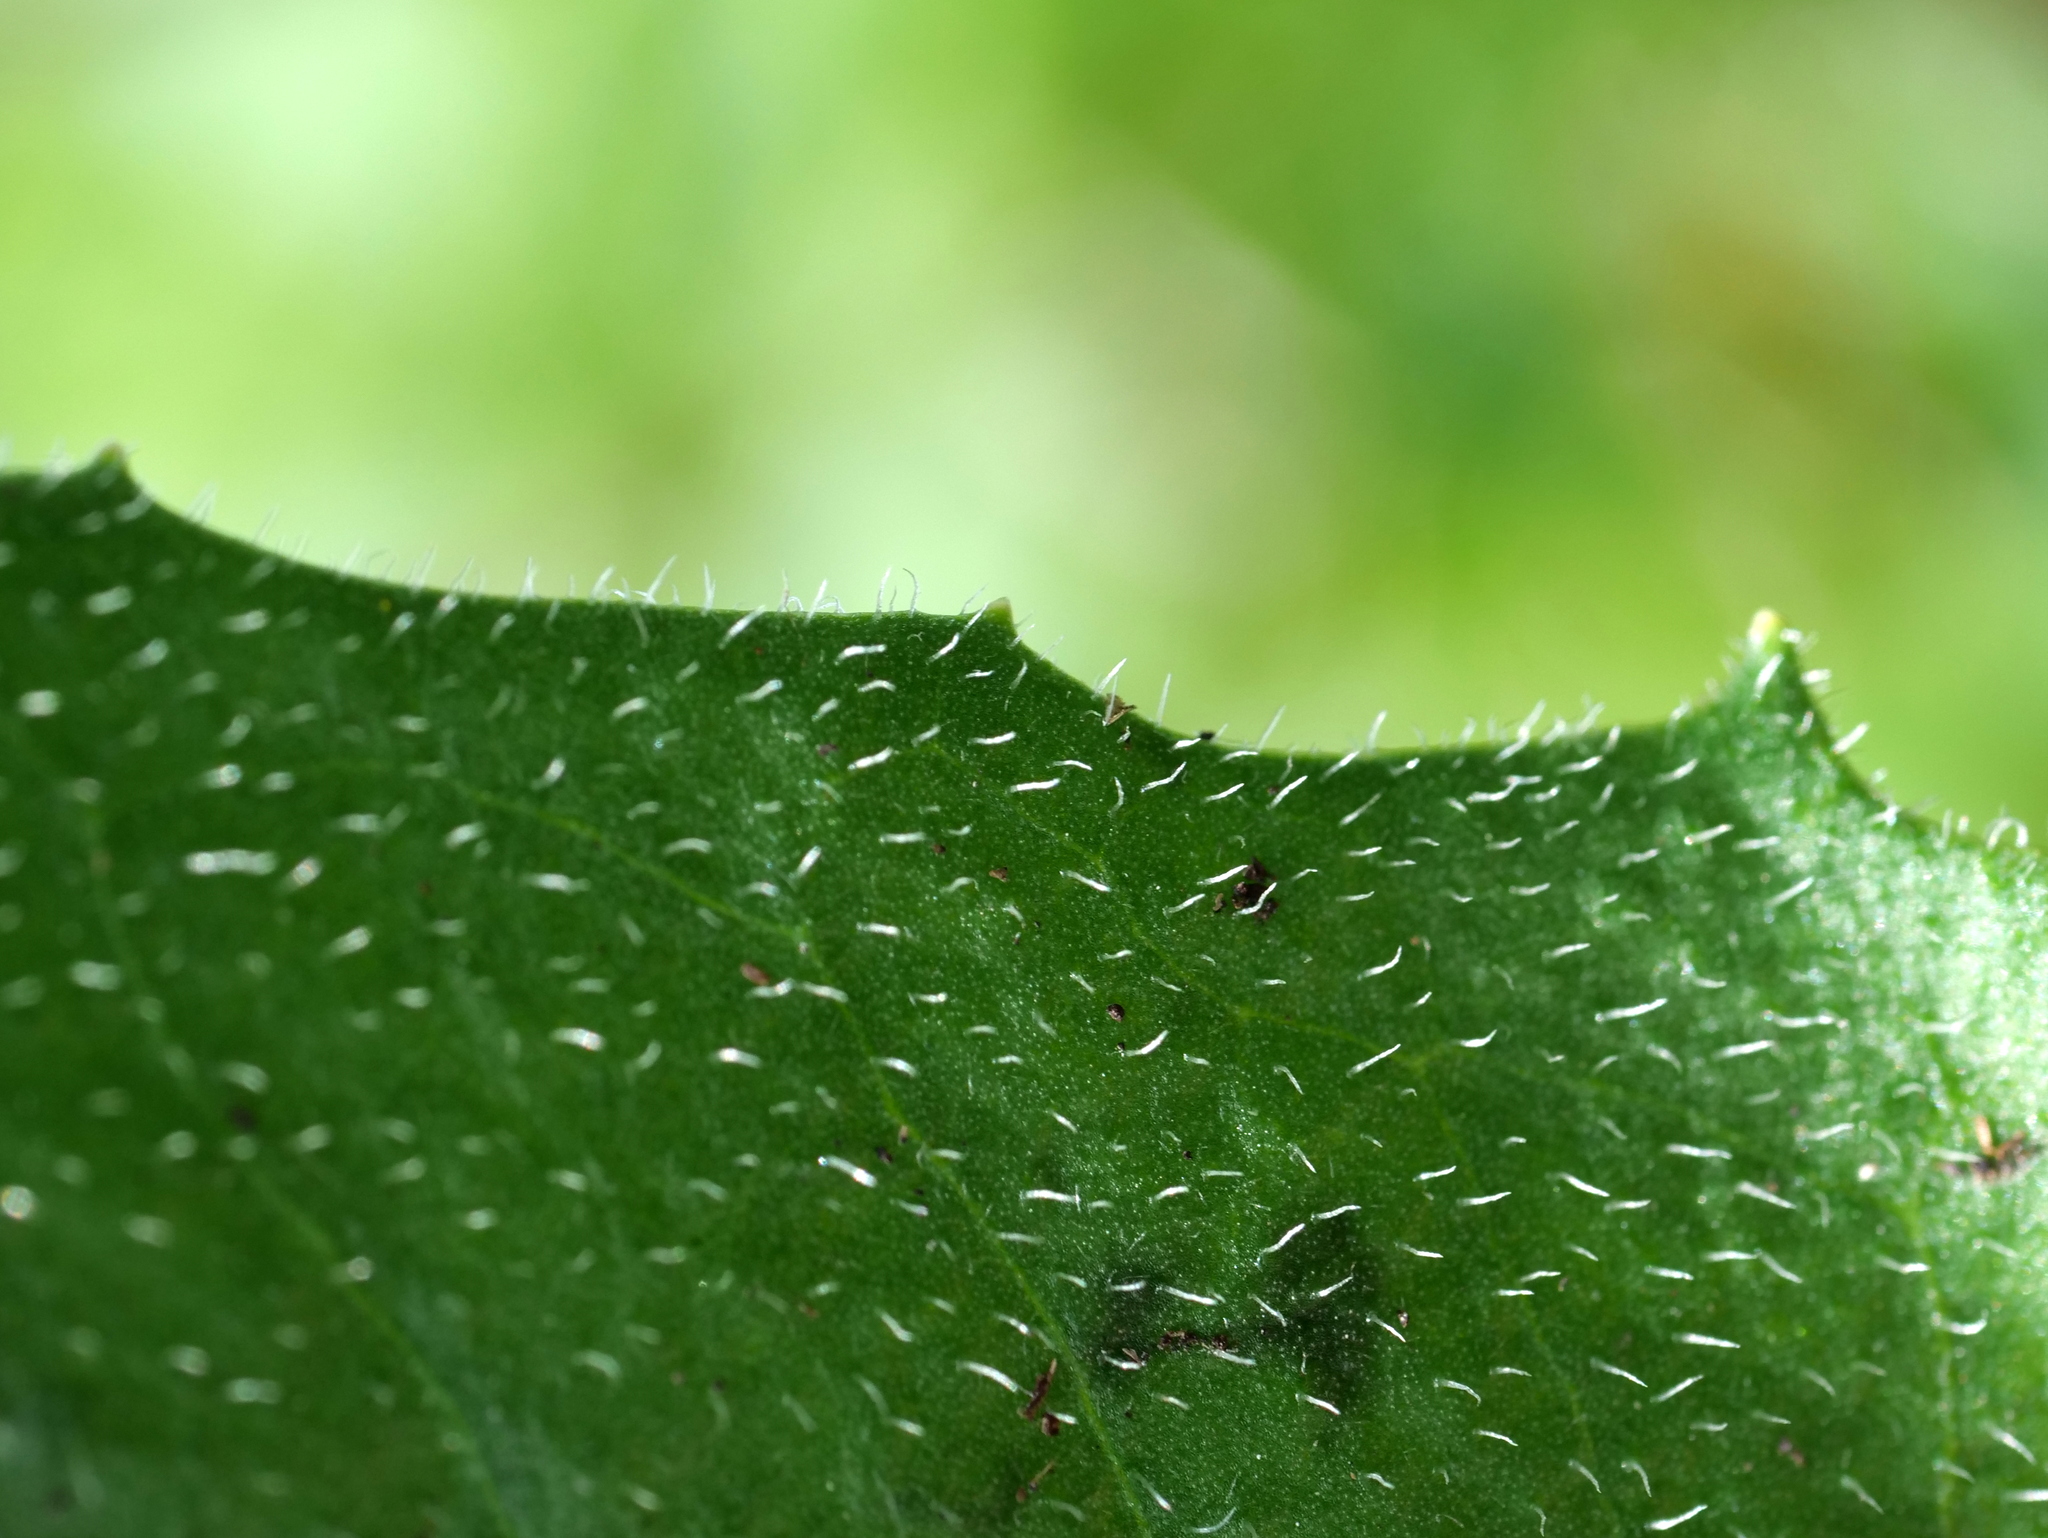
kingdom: Plantae
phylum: Tracheophyta
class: Magnoliopsida
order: Asterales
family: Asteraceae
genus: Scorzoneroides
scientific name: Scorzoneroides helvetica
